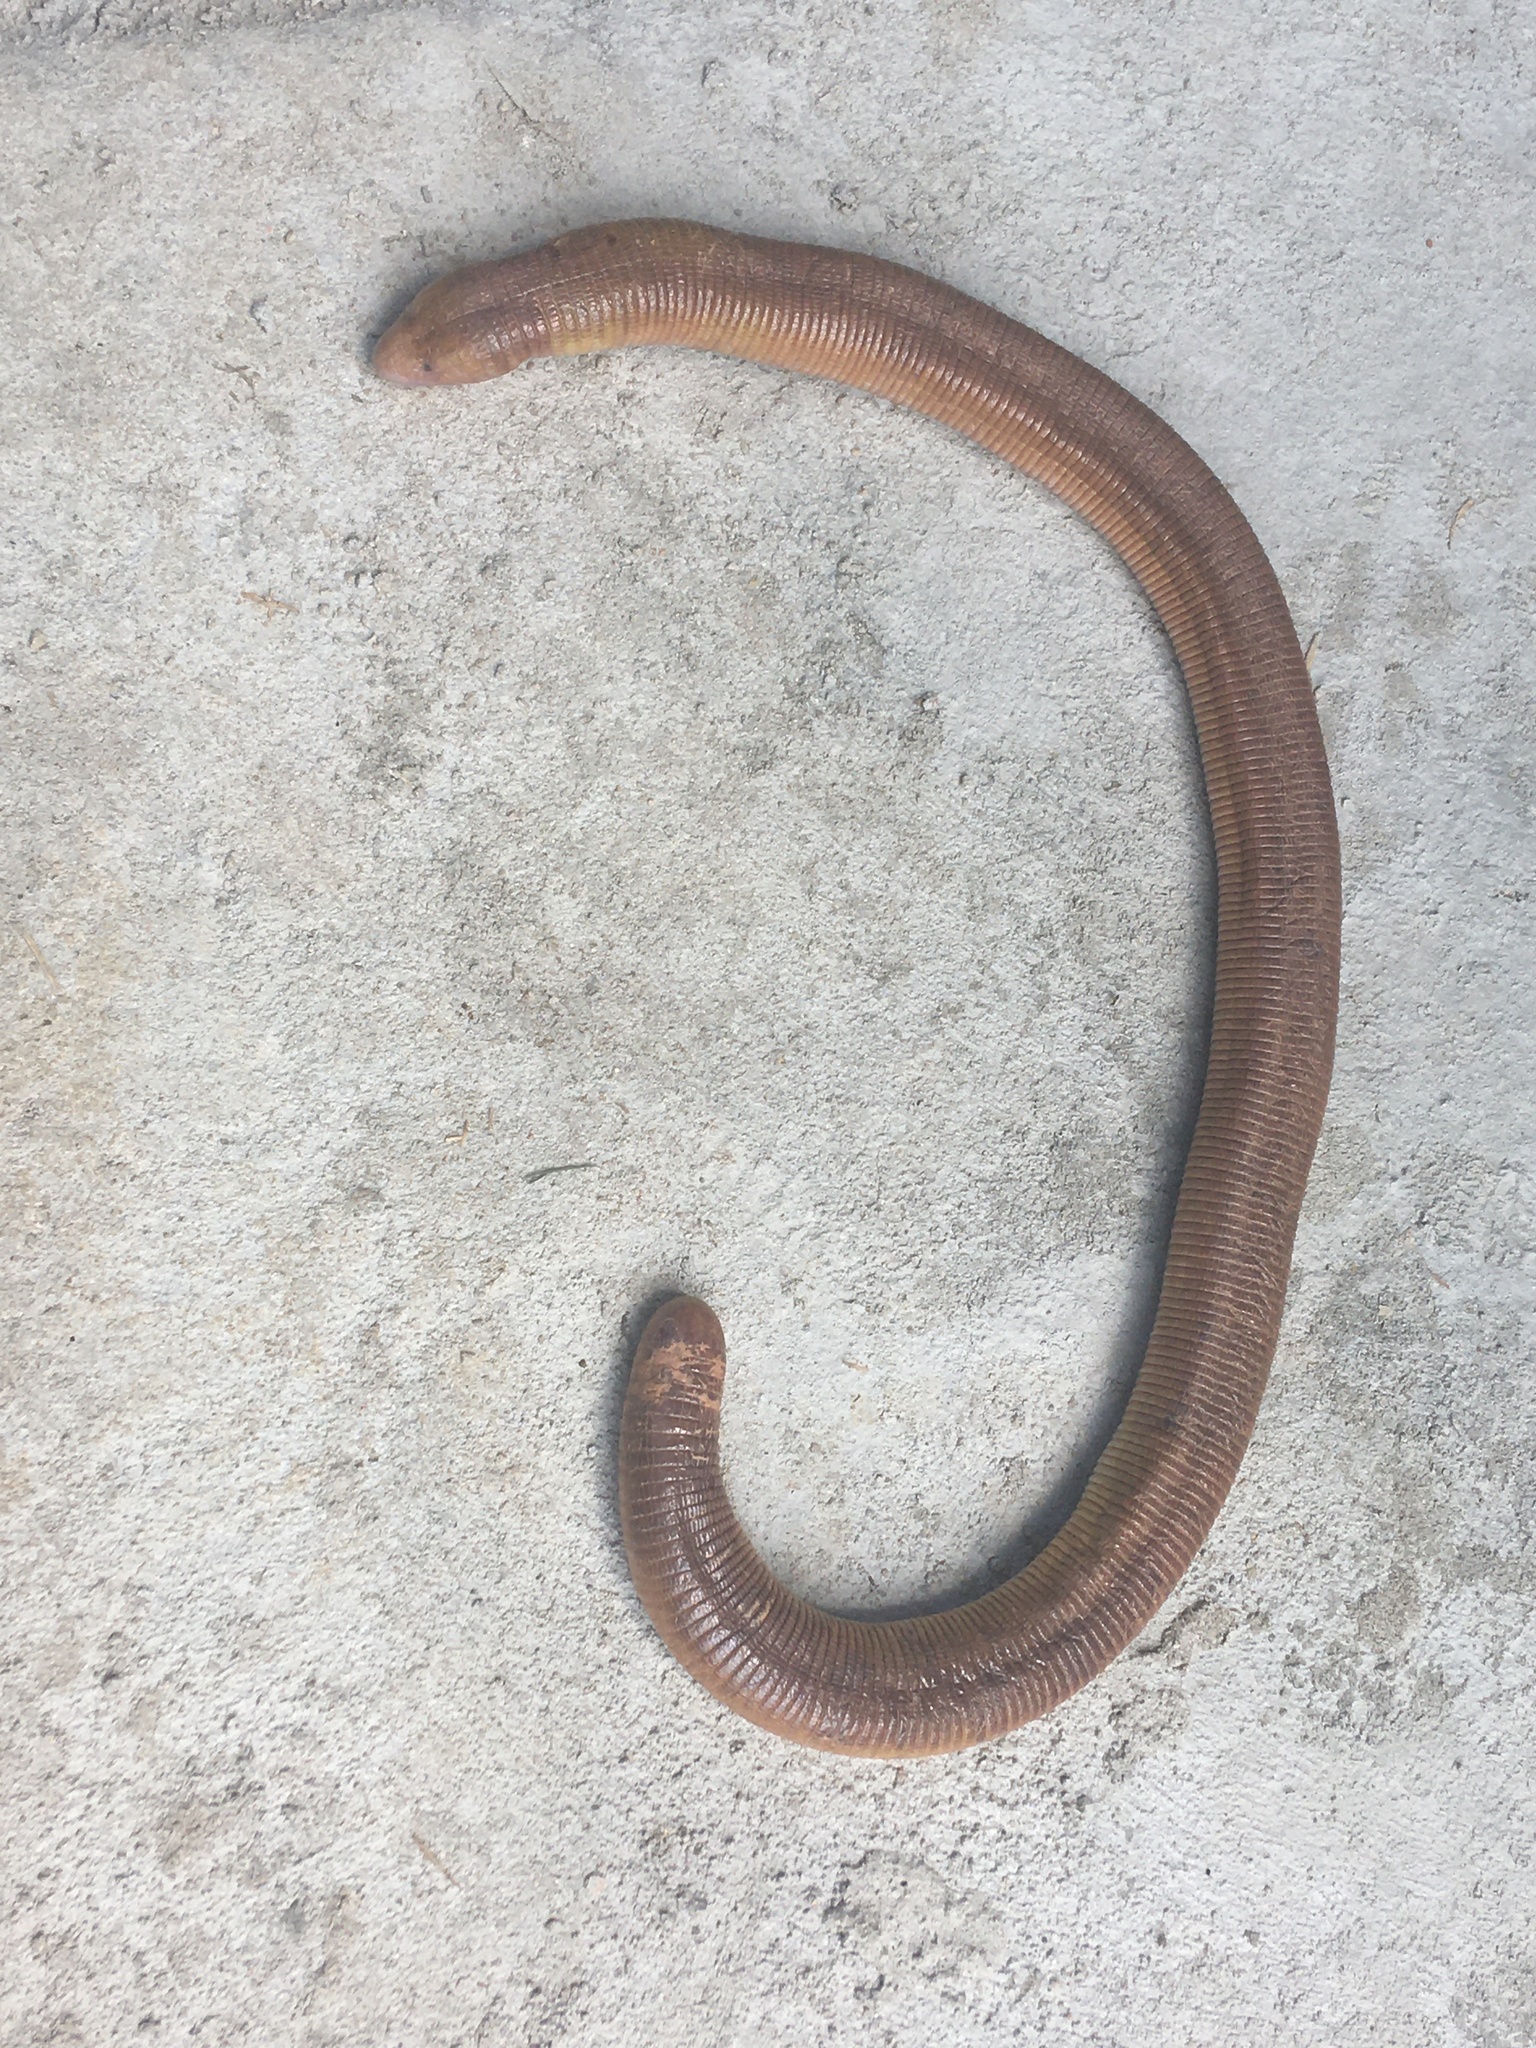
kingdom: Animalia
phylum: Chordata
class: Squamata
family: Amphisbaenidae
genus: Amphisbaena
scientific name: Amphisbaena alba
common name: Red worm lizard
